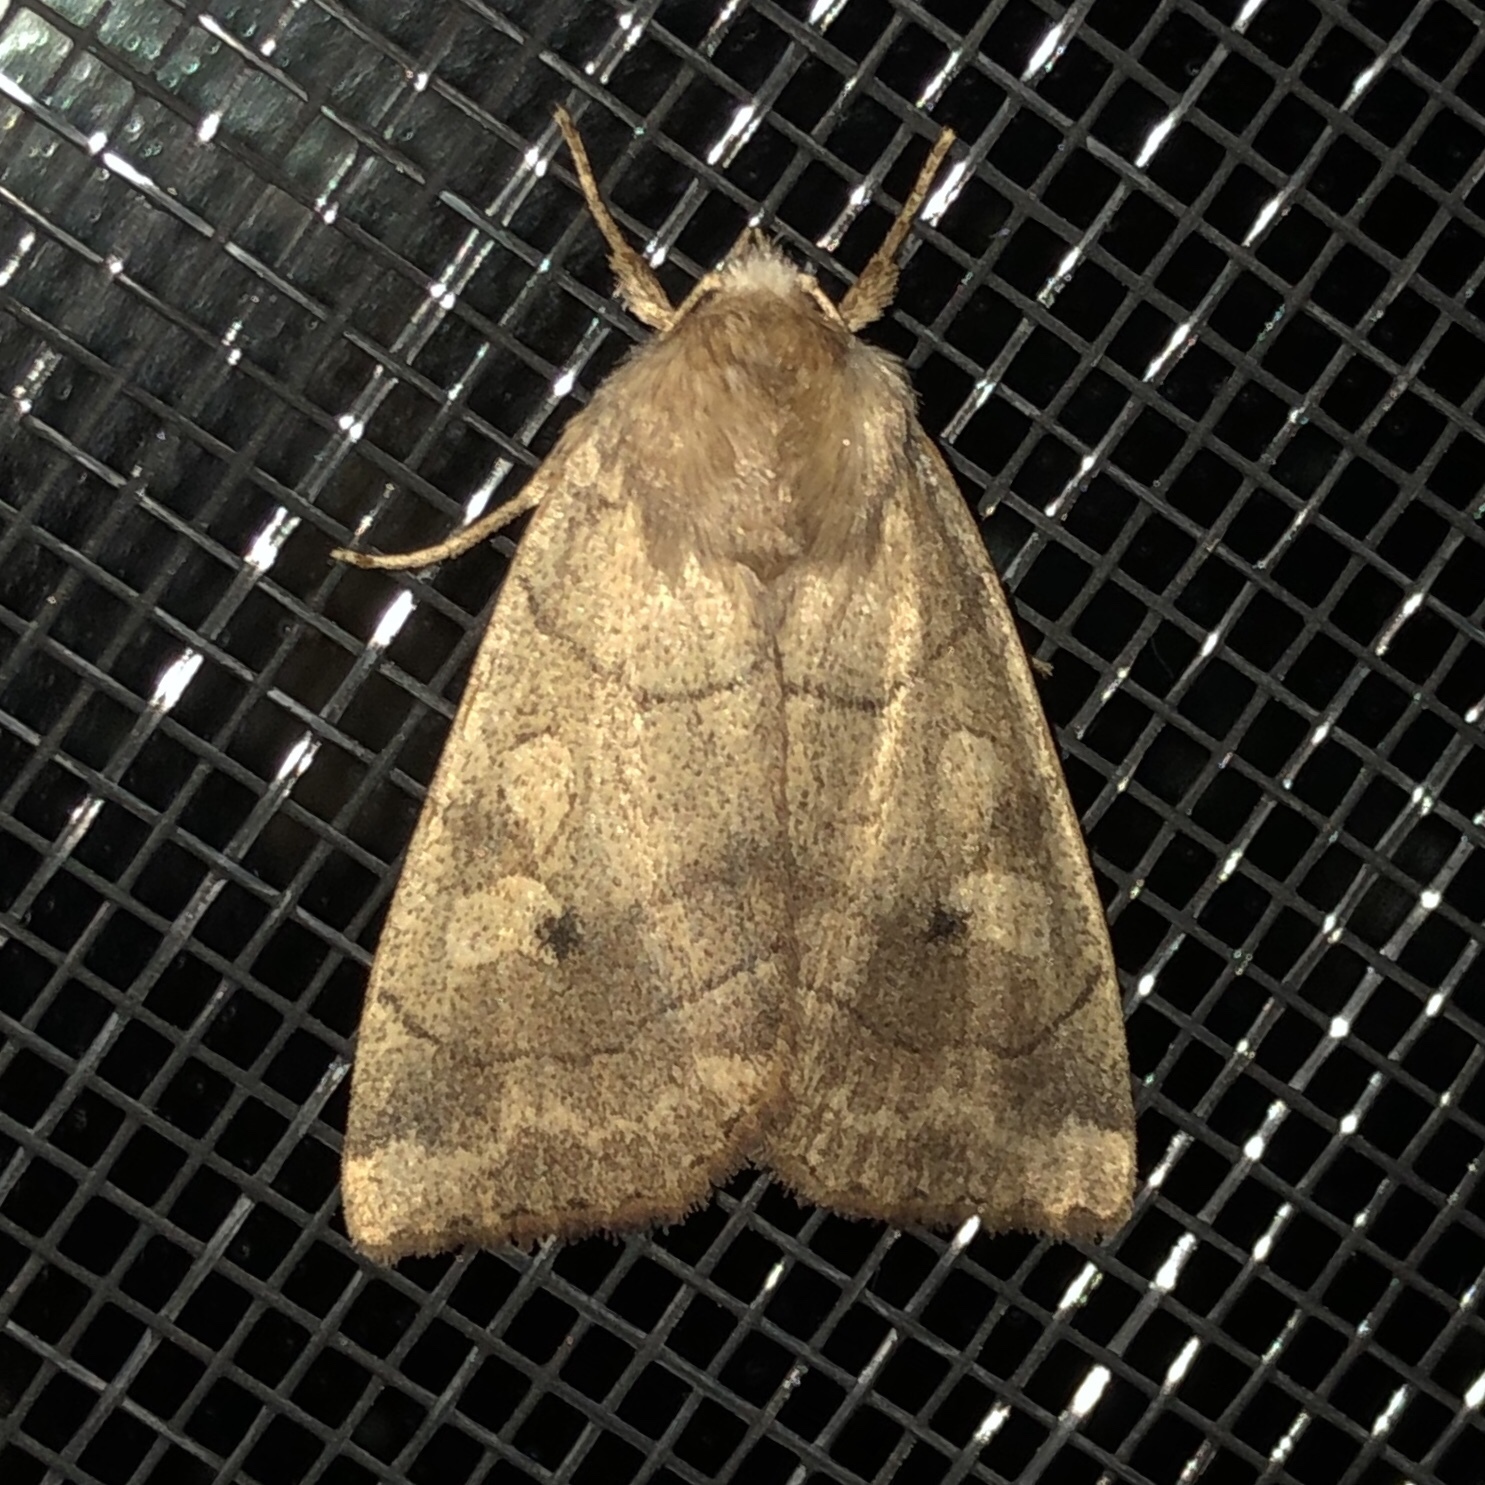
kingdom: Animalia
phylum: Arthropoda
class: Insecta
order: Lepidoptera
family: Noctuidae
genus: Enargia
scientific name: Enargia infumata
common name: Smoked sallow
